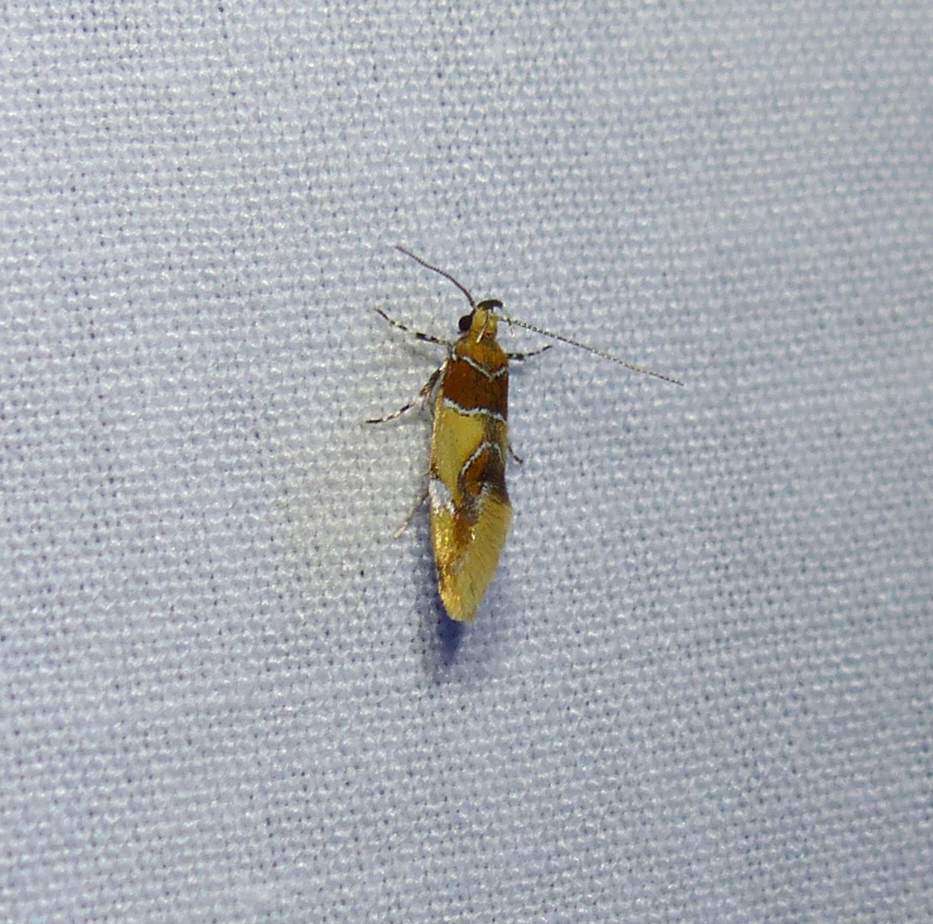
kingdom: Animalia
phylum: Arthropoda
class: Insecta
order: Lepidoptera
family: Oecophoridae
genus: Callima
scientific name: Callima argenticinctella
